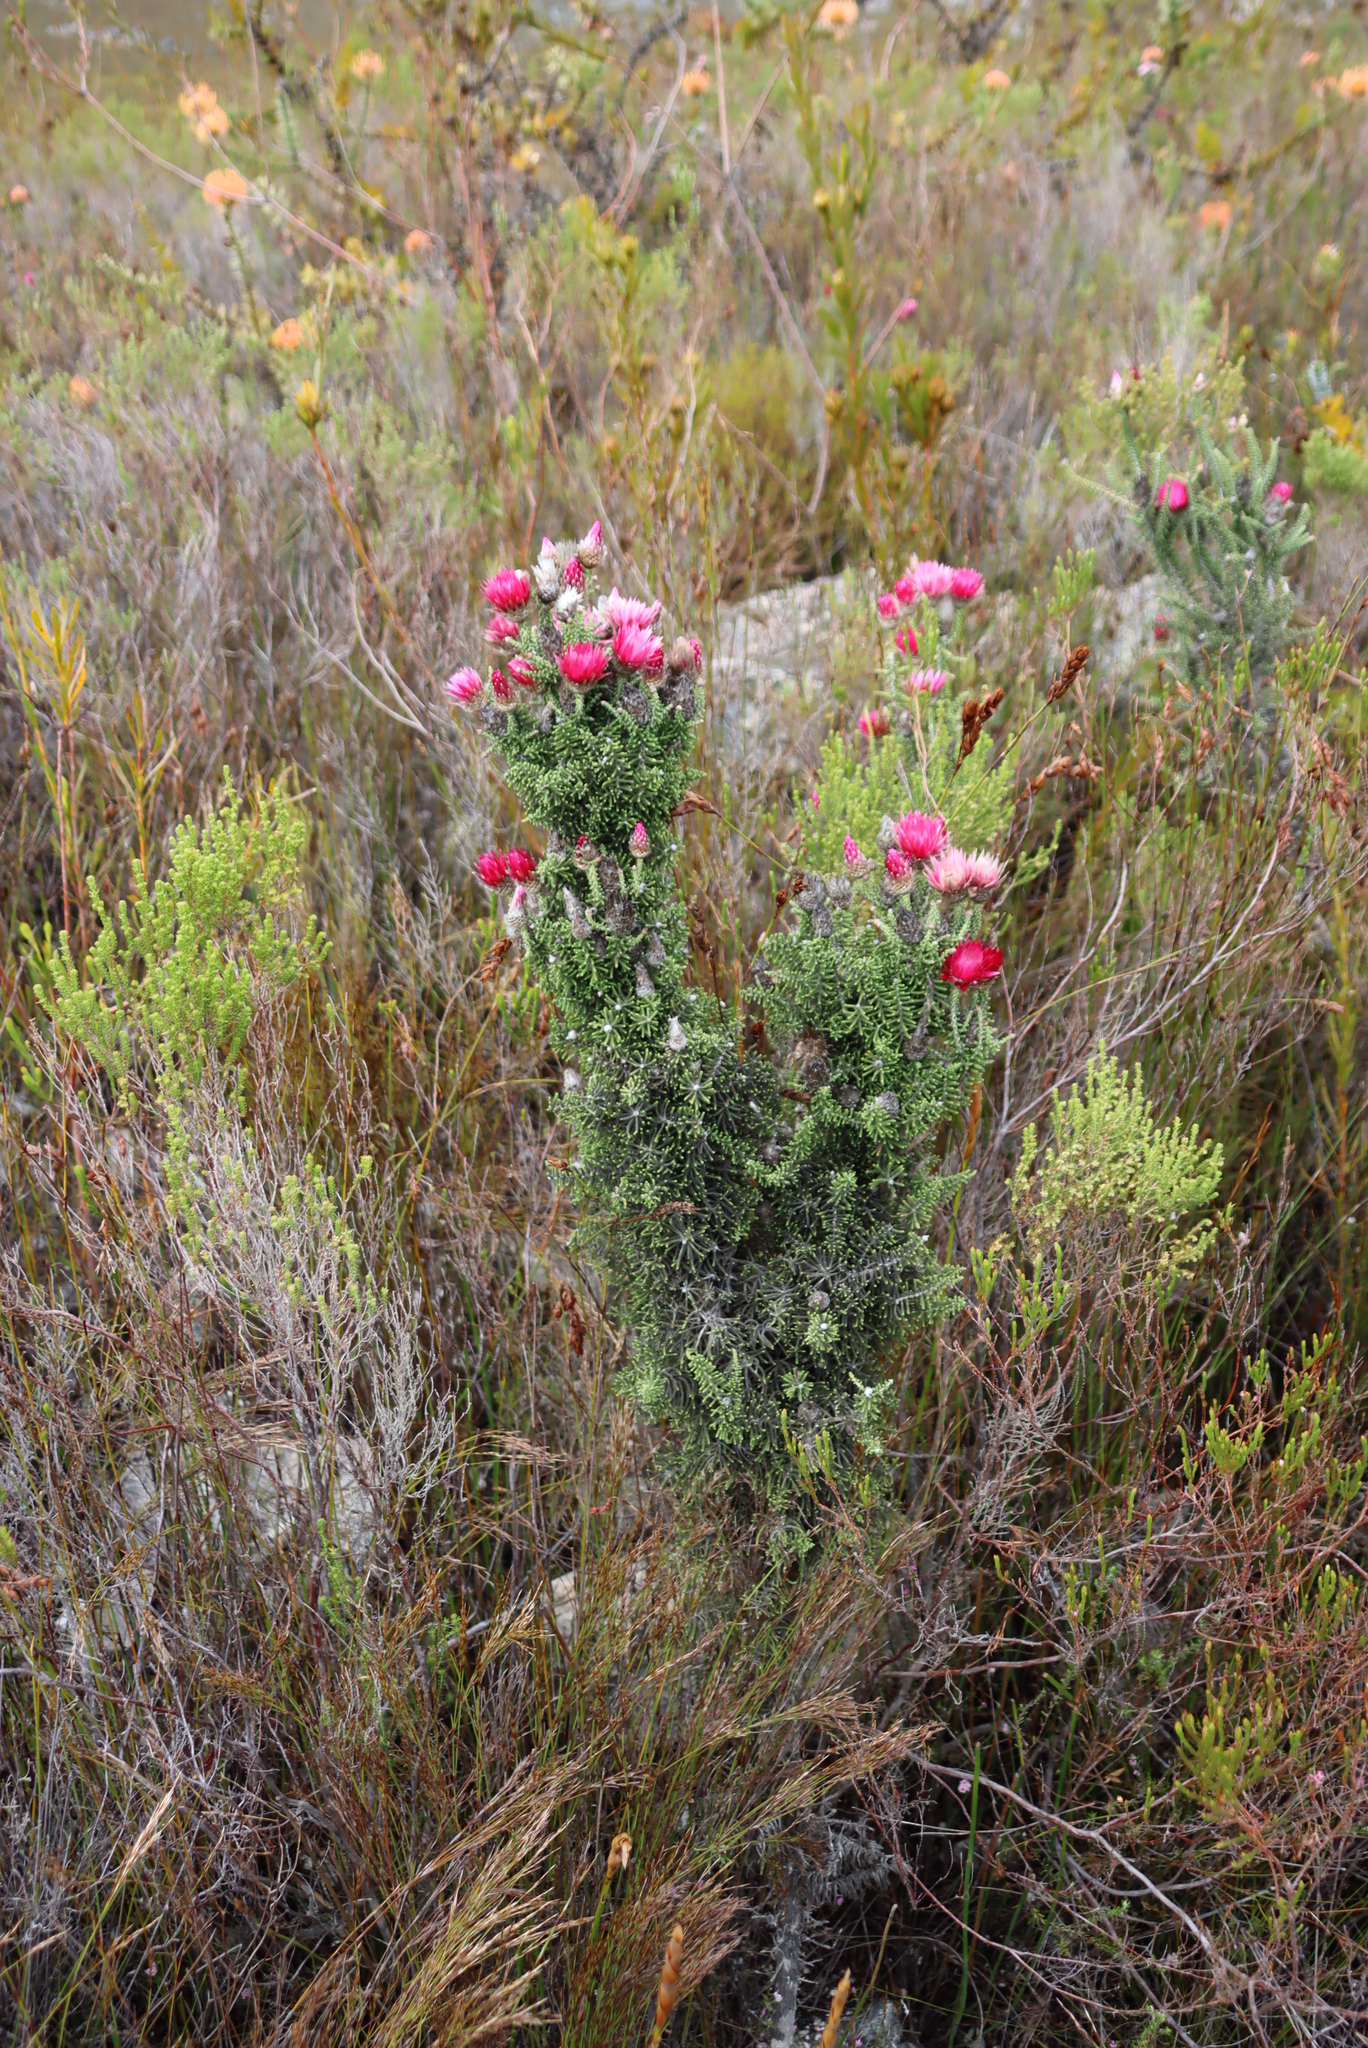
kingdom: Plantae
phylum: Tracheophyta
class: Magnoliopsida
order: Asterales
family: Asteraceae
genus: Phaenocoma
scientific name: Phaenocoma prolifera
